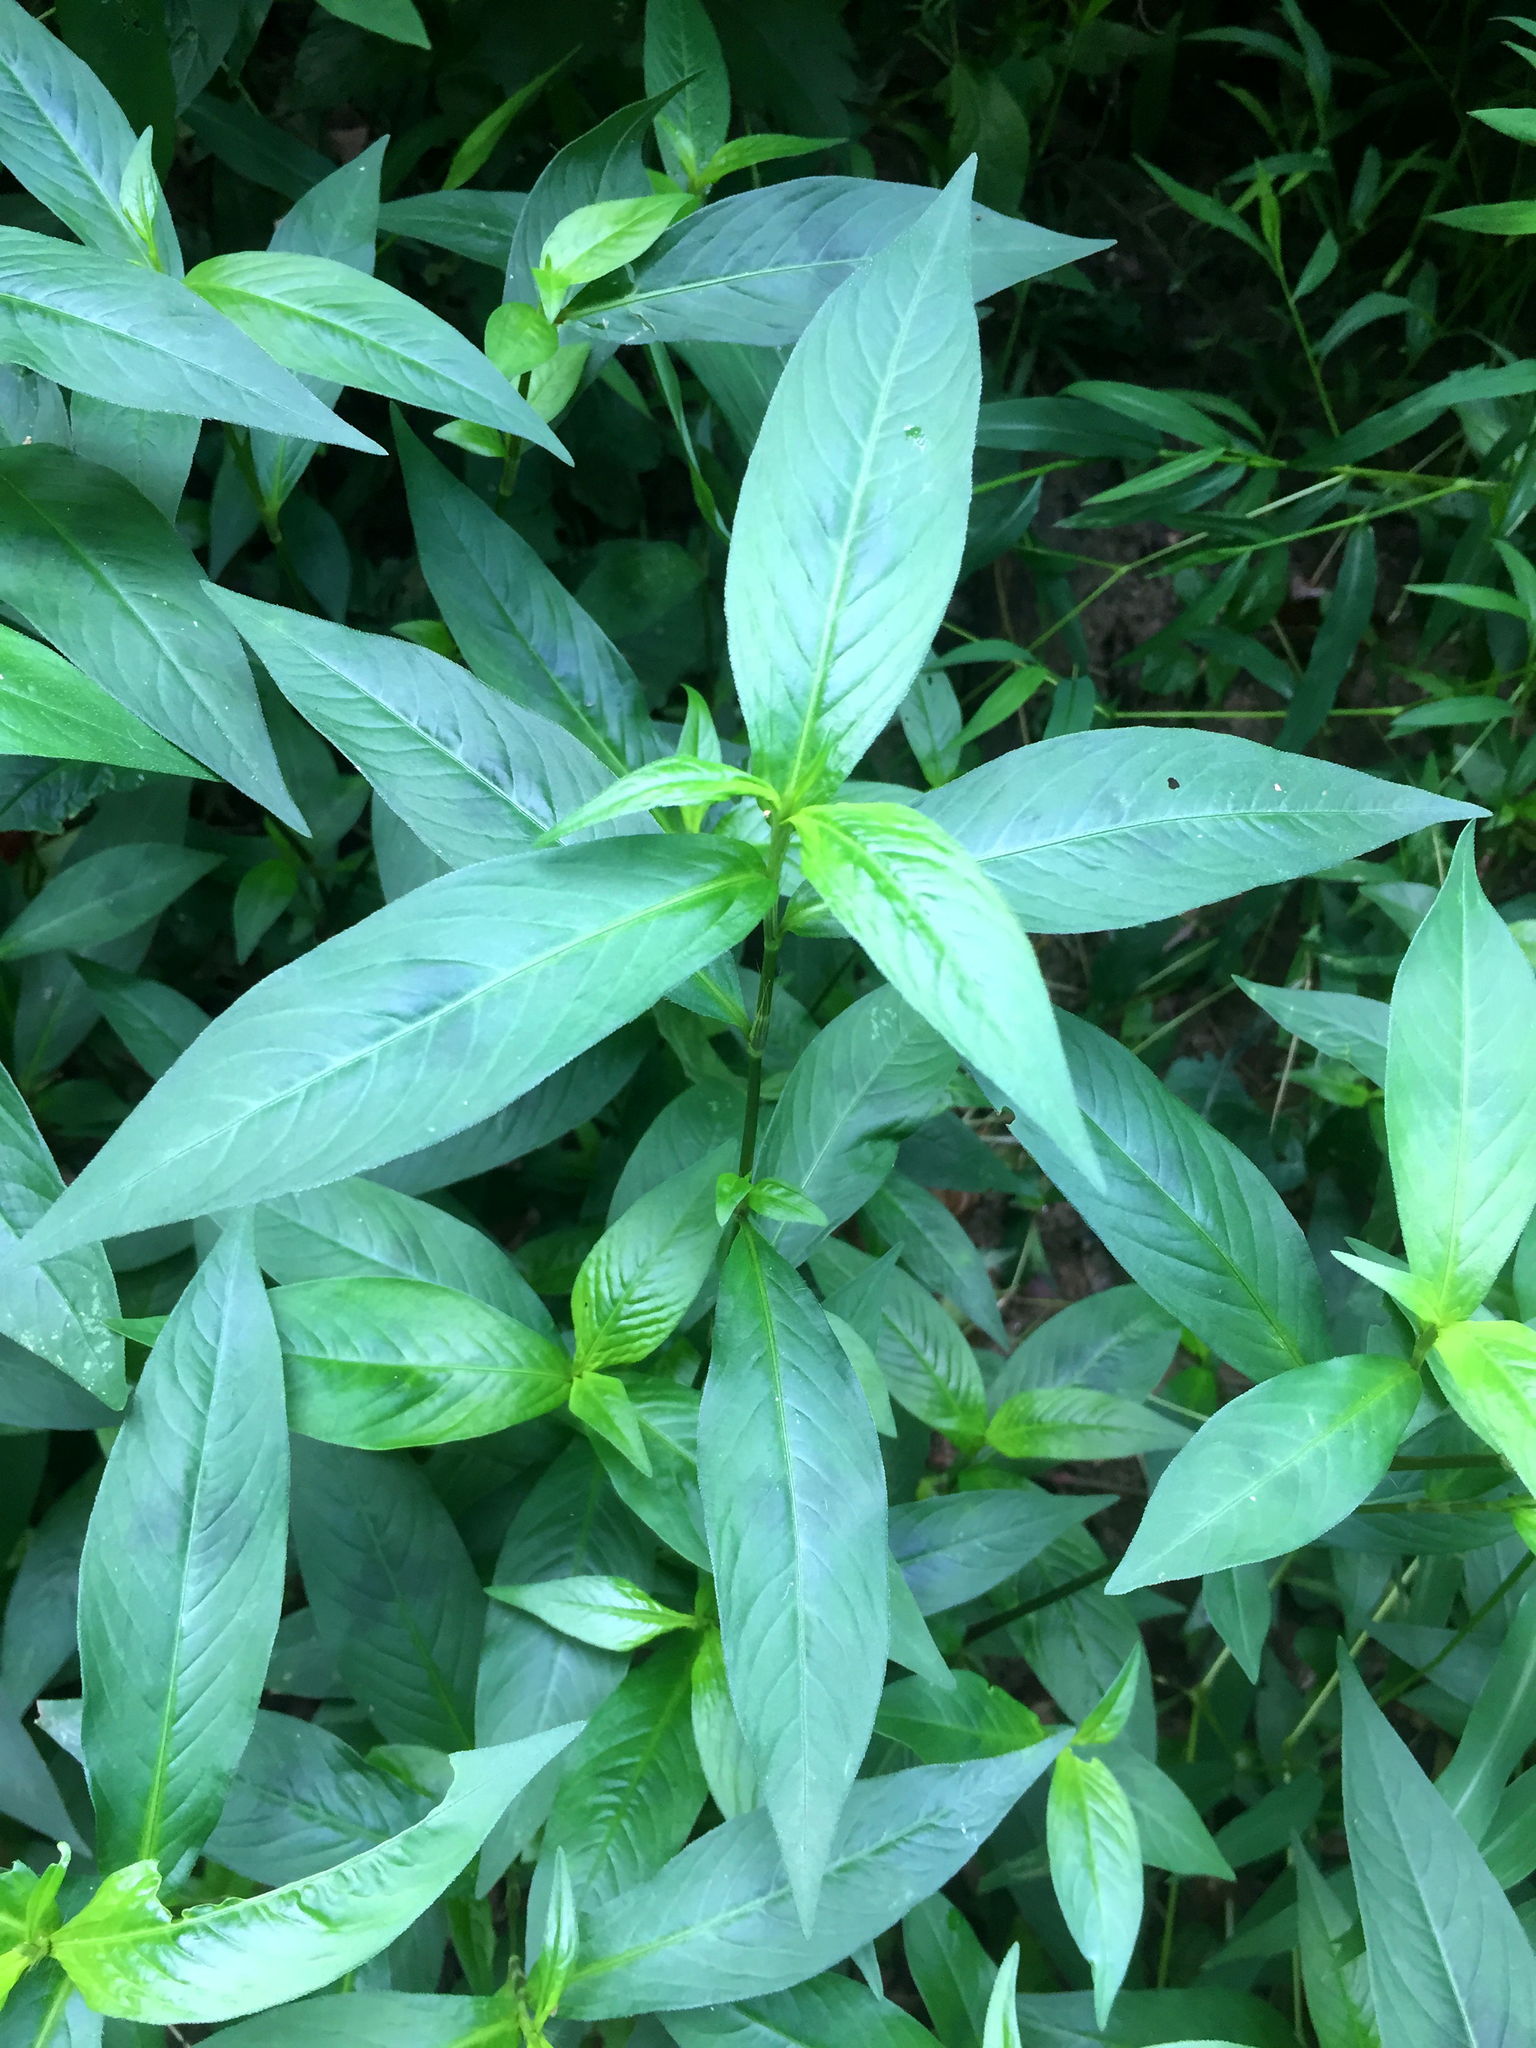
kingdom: Plantae
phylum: Tracheophyta
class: Magnoliopsida
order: Caryophyllales
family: Polygonaceae
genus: Persicaria
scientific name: Persicaria longiseta
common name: Bristly lady's-thumb
